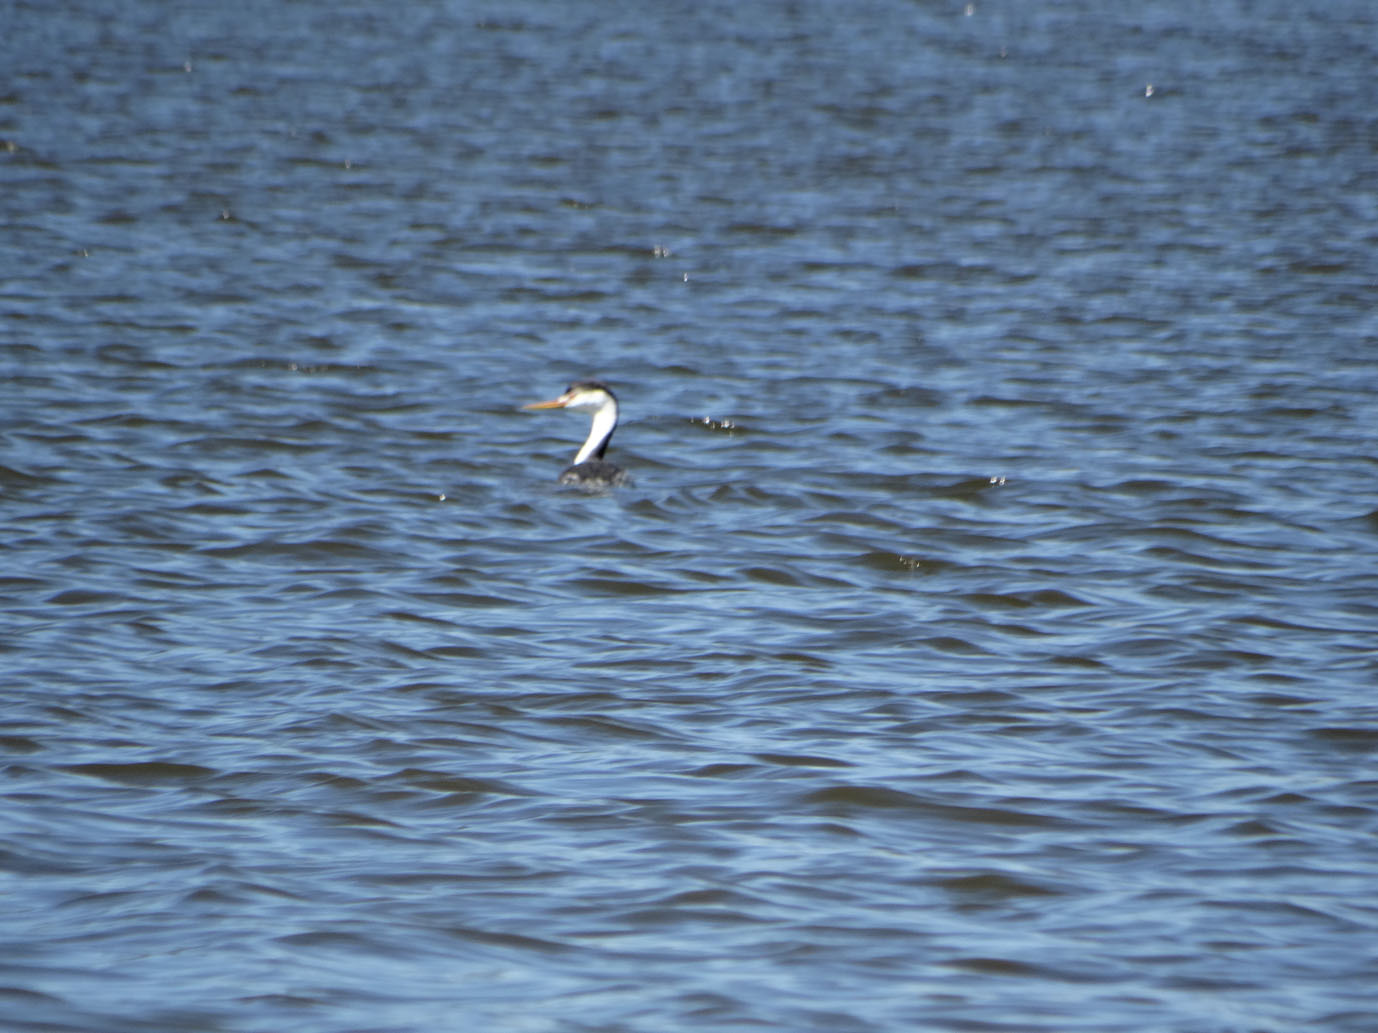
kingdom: Animalia
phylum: Chordata
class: Aves
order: Podicipediformes
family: Podicipedidae
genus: Aechmophorus
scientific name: Aechmophorus clarkii
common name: Clark's grebe
